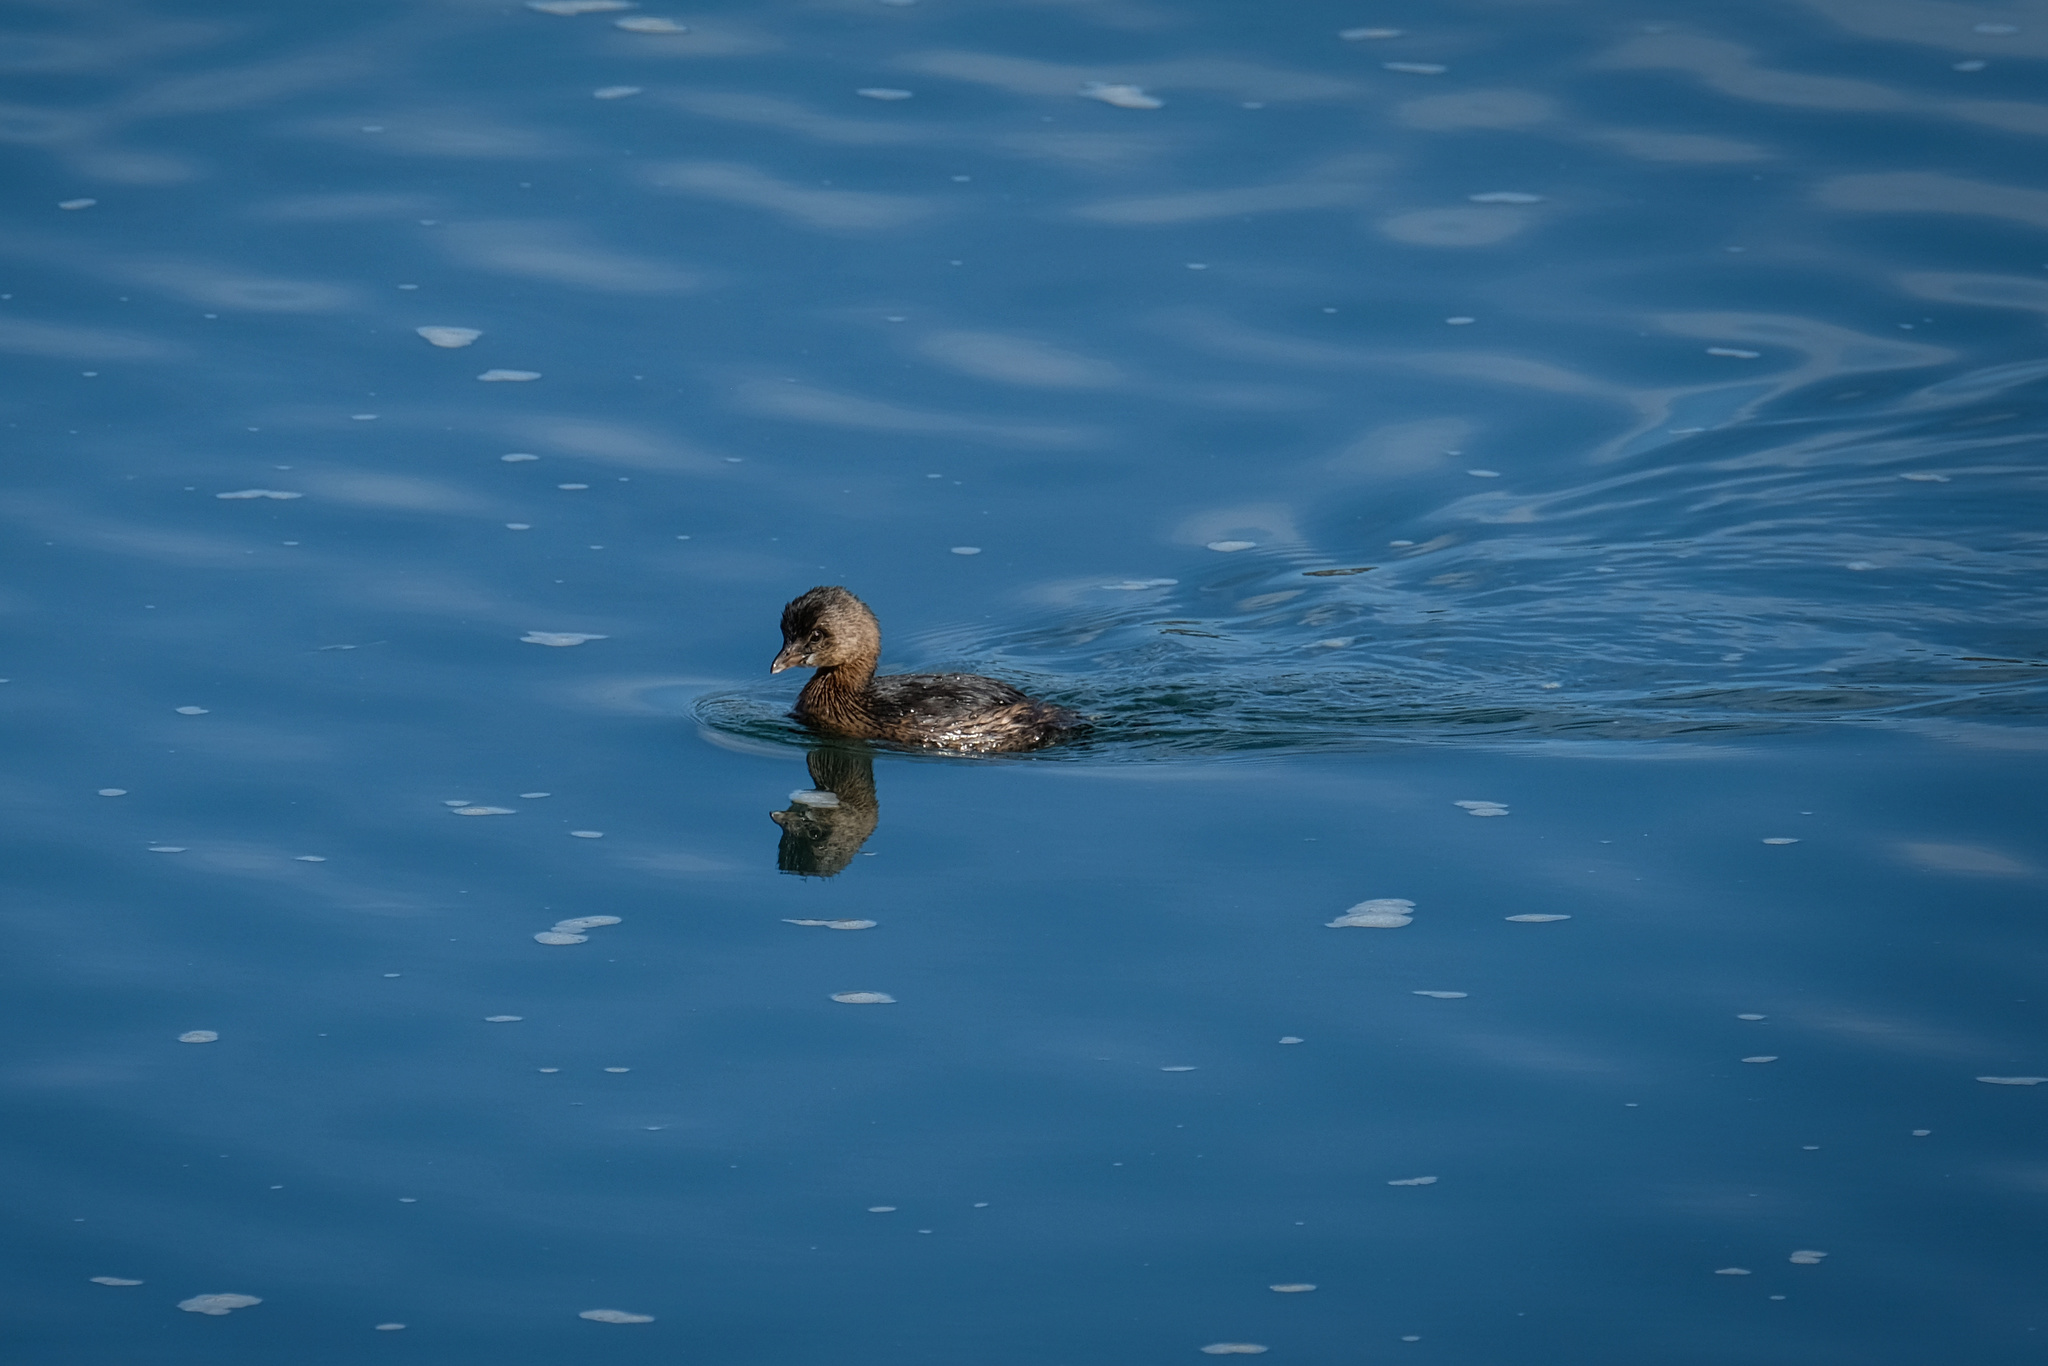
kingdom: Animalia
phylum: Chordata
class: Aves
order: Podicipediformes
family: Podicipedidae
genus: Podilymbus
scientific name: Podilymbus podiceps
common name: Pied-billed grebe
